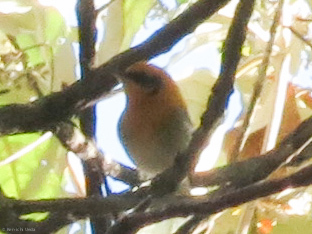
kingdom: Animalia
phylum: Chordata
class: Aves
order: Passeriformes
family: Peucedramidae
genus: Peucedramus
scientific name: Peucedramus taeniatus
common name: Olive warbler
